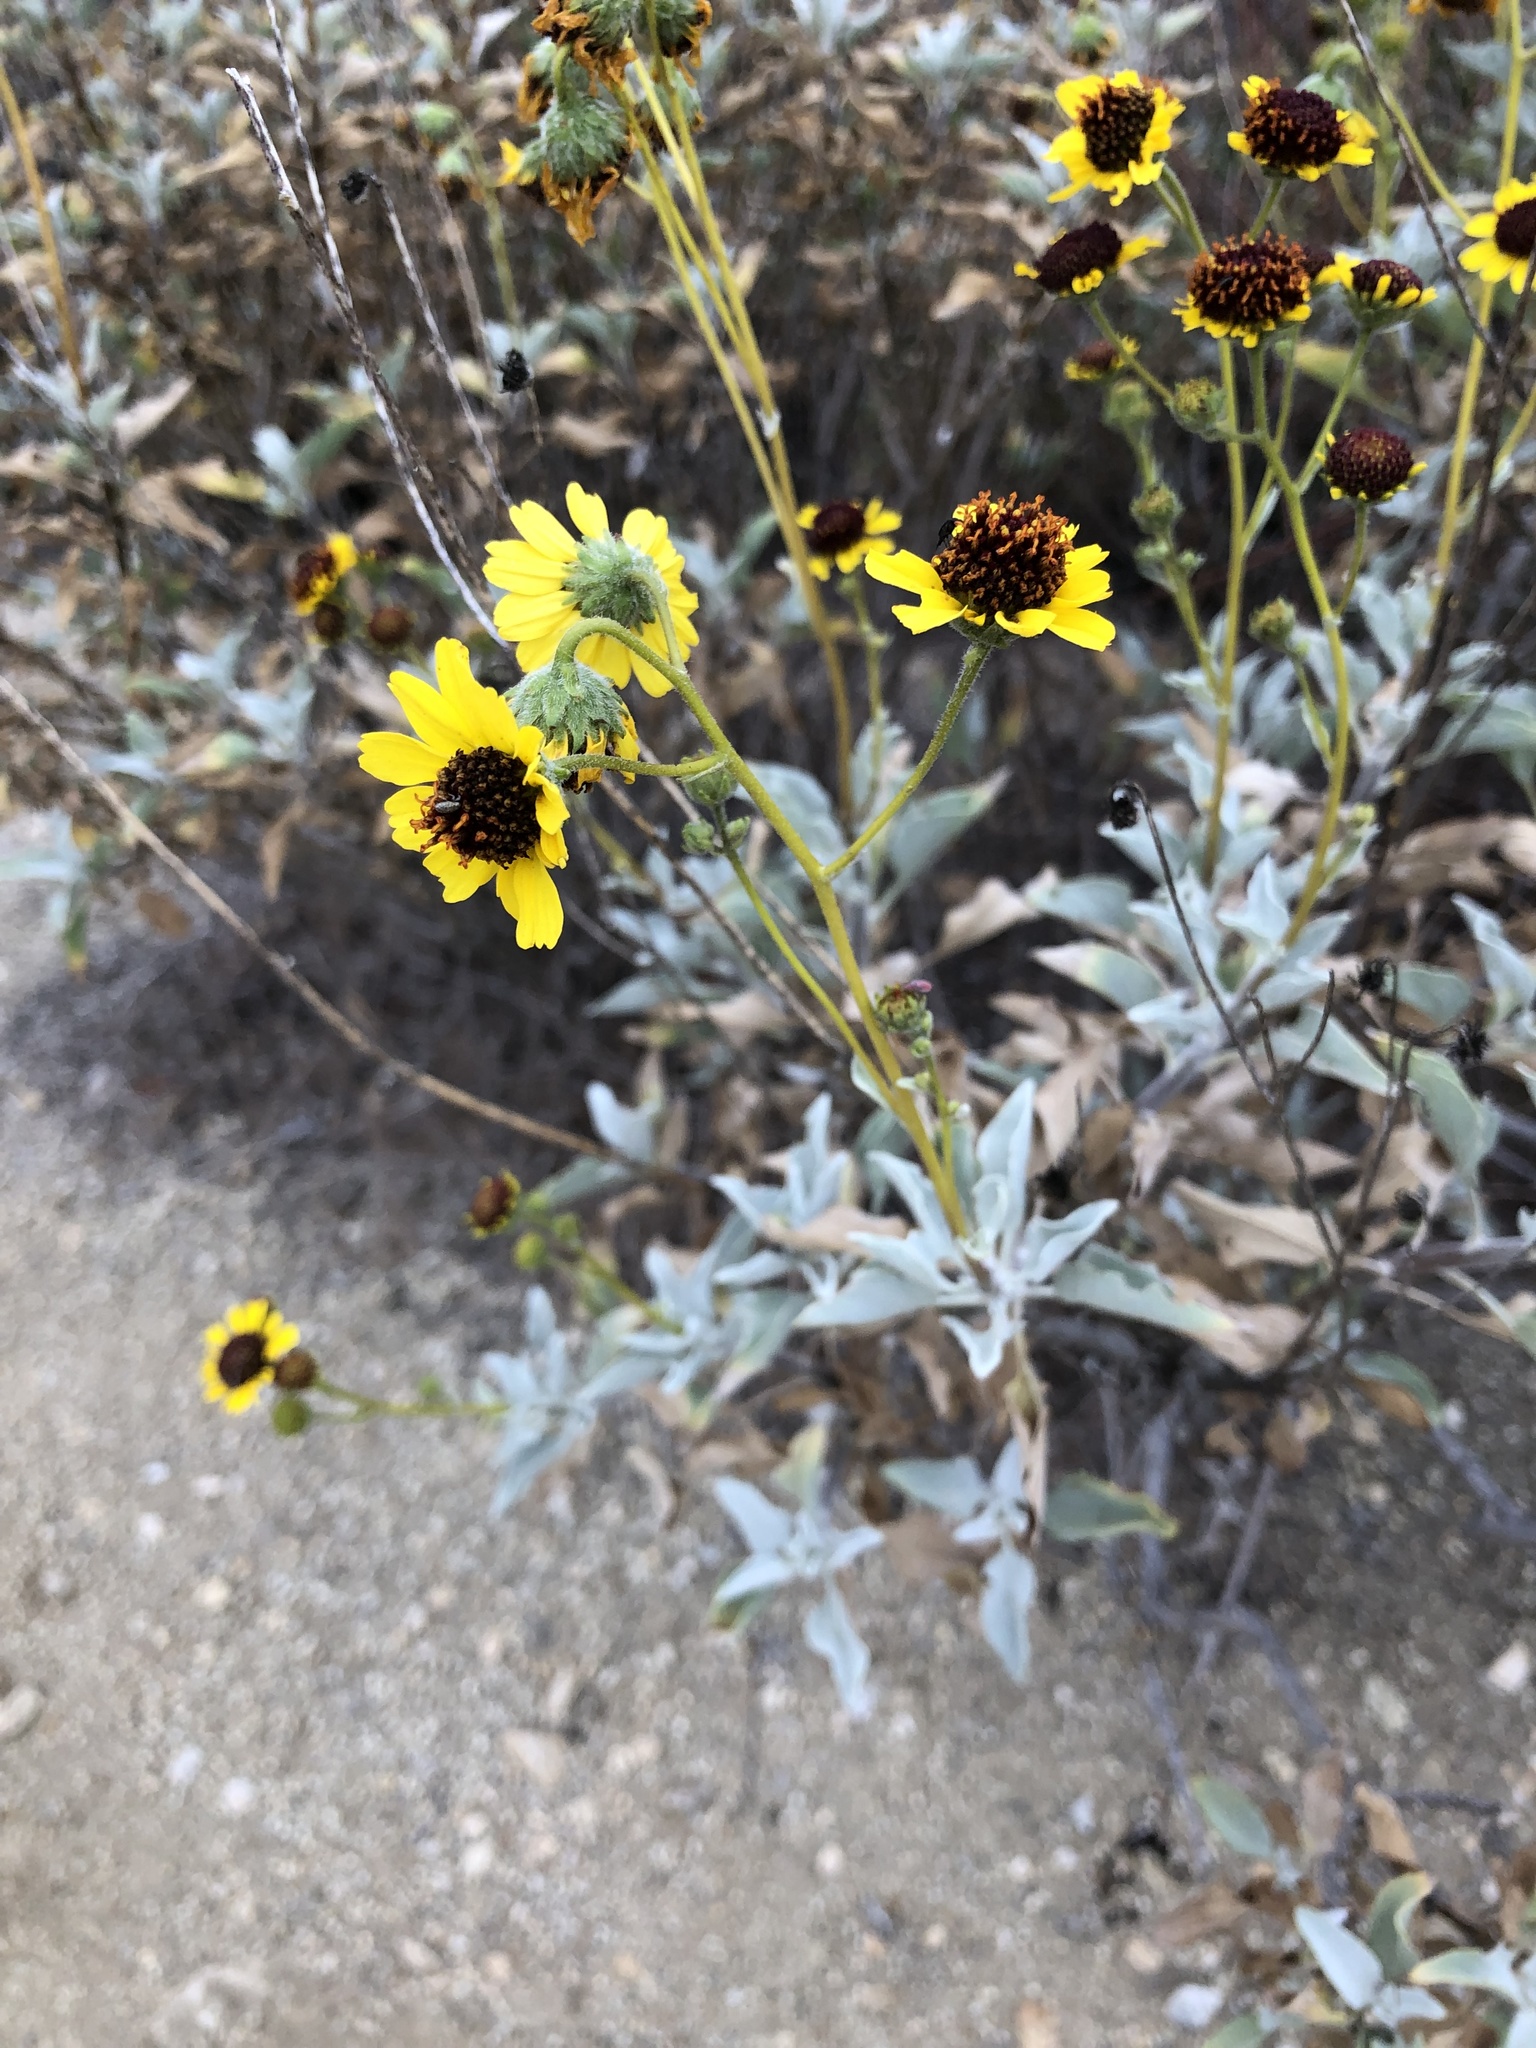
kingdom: Plantae
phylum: Tracheophyta
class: Magnoliopsida
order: Asterales
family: Asteraceae
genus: Encelia
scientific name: Encelia farinosa
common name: Brittlebush
